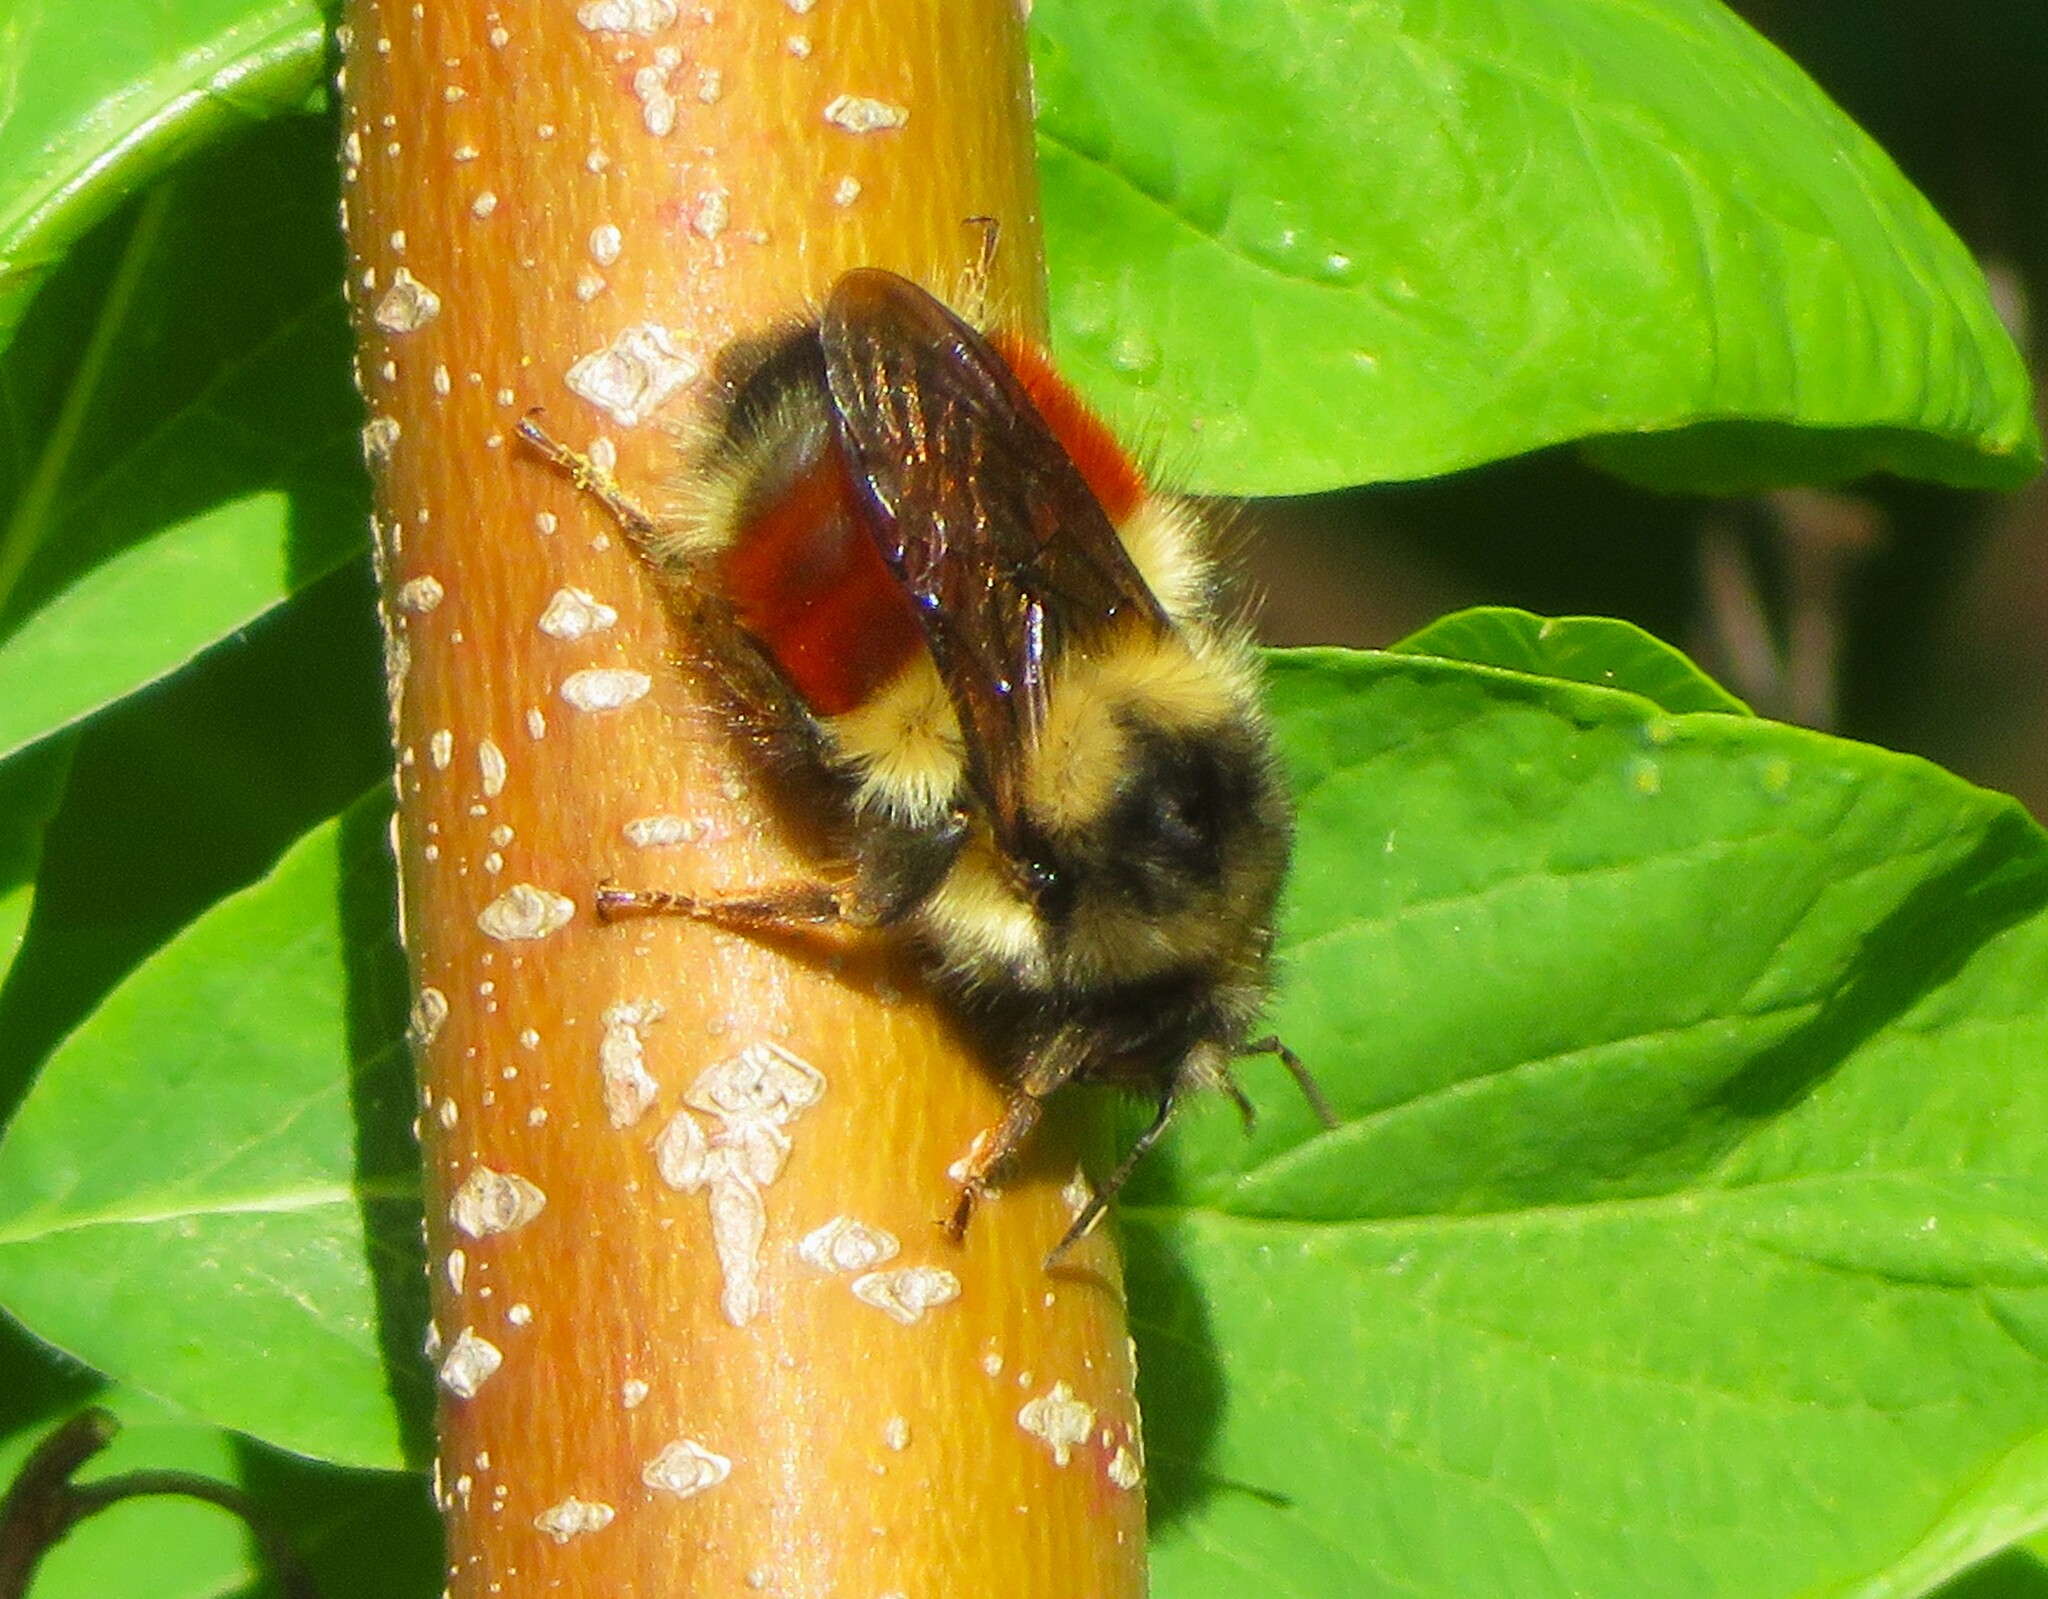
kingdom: Animalia
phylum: Arthropoda
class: Insecta
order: Hymenoptera
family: Apidae
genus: Bombus
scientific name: Bombus melanopygus
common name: Black tail bumble bee
